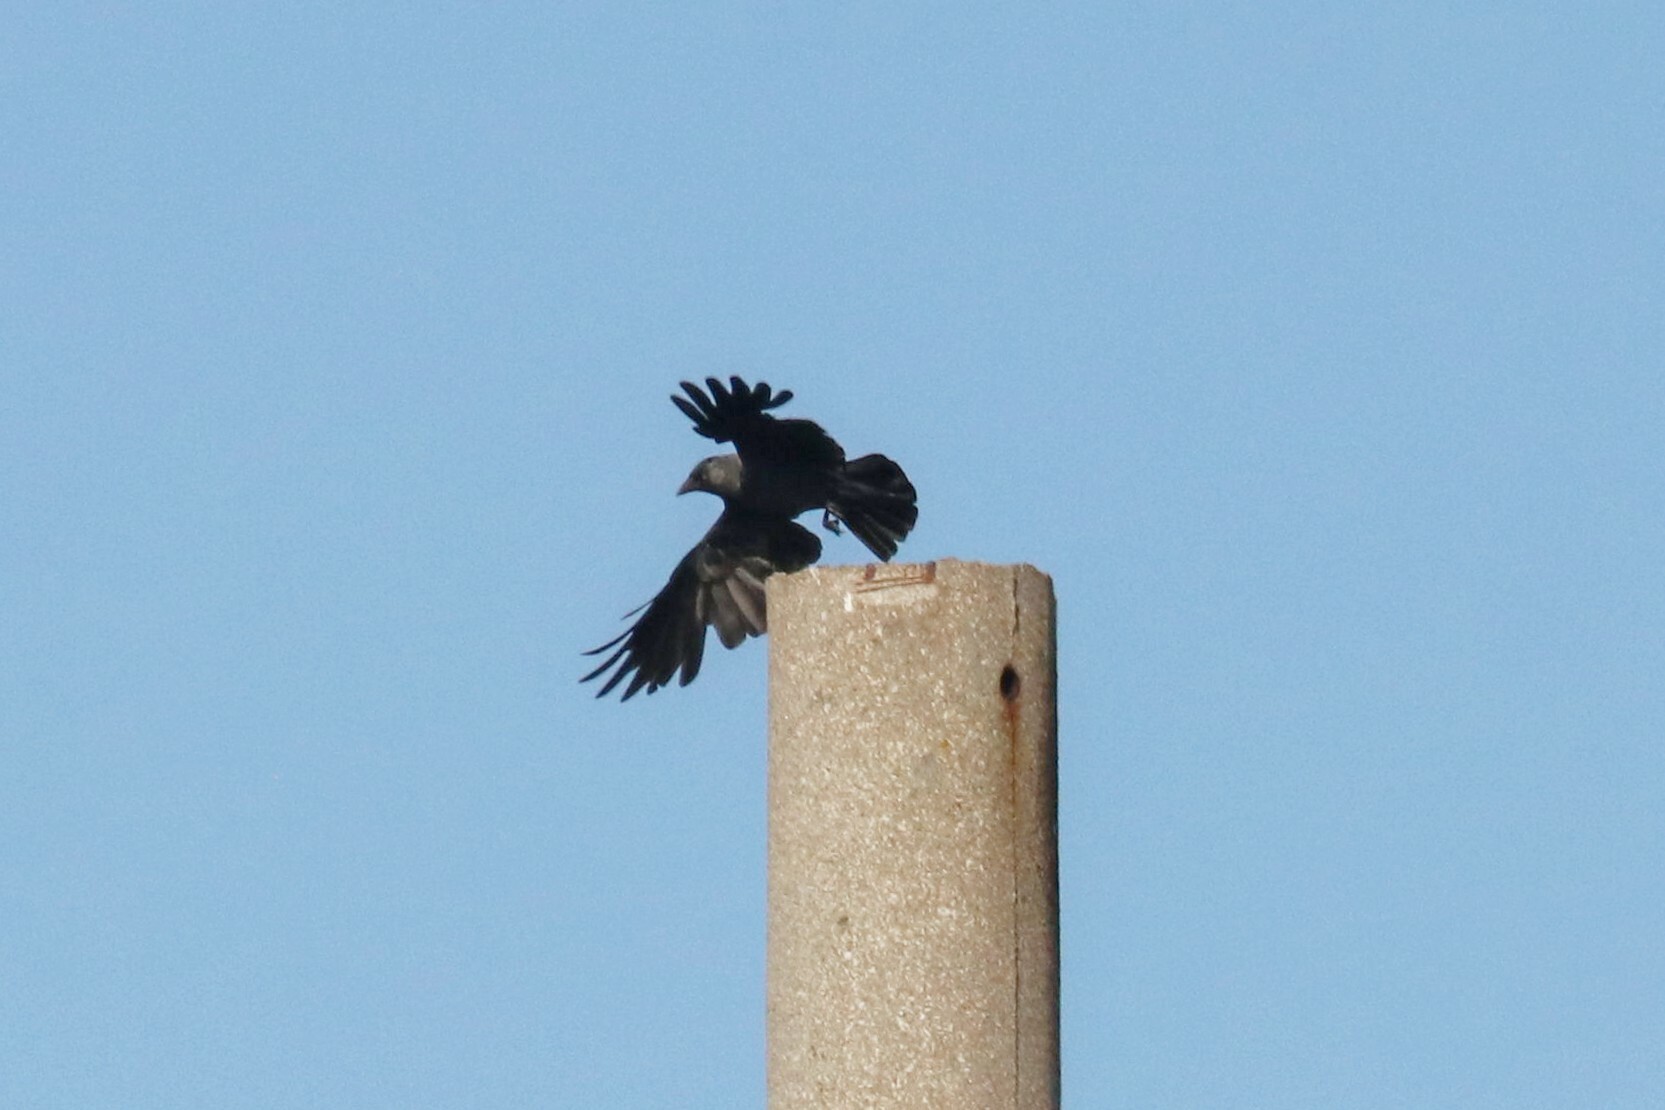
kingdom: Animalia
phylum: Chordata
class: Aves
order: Passeriformes
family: Corvidae
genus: Coloeus
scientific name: Coloeus monedula
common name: Western jackdaw
